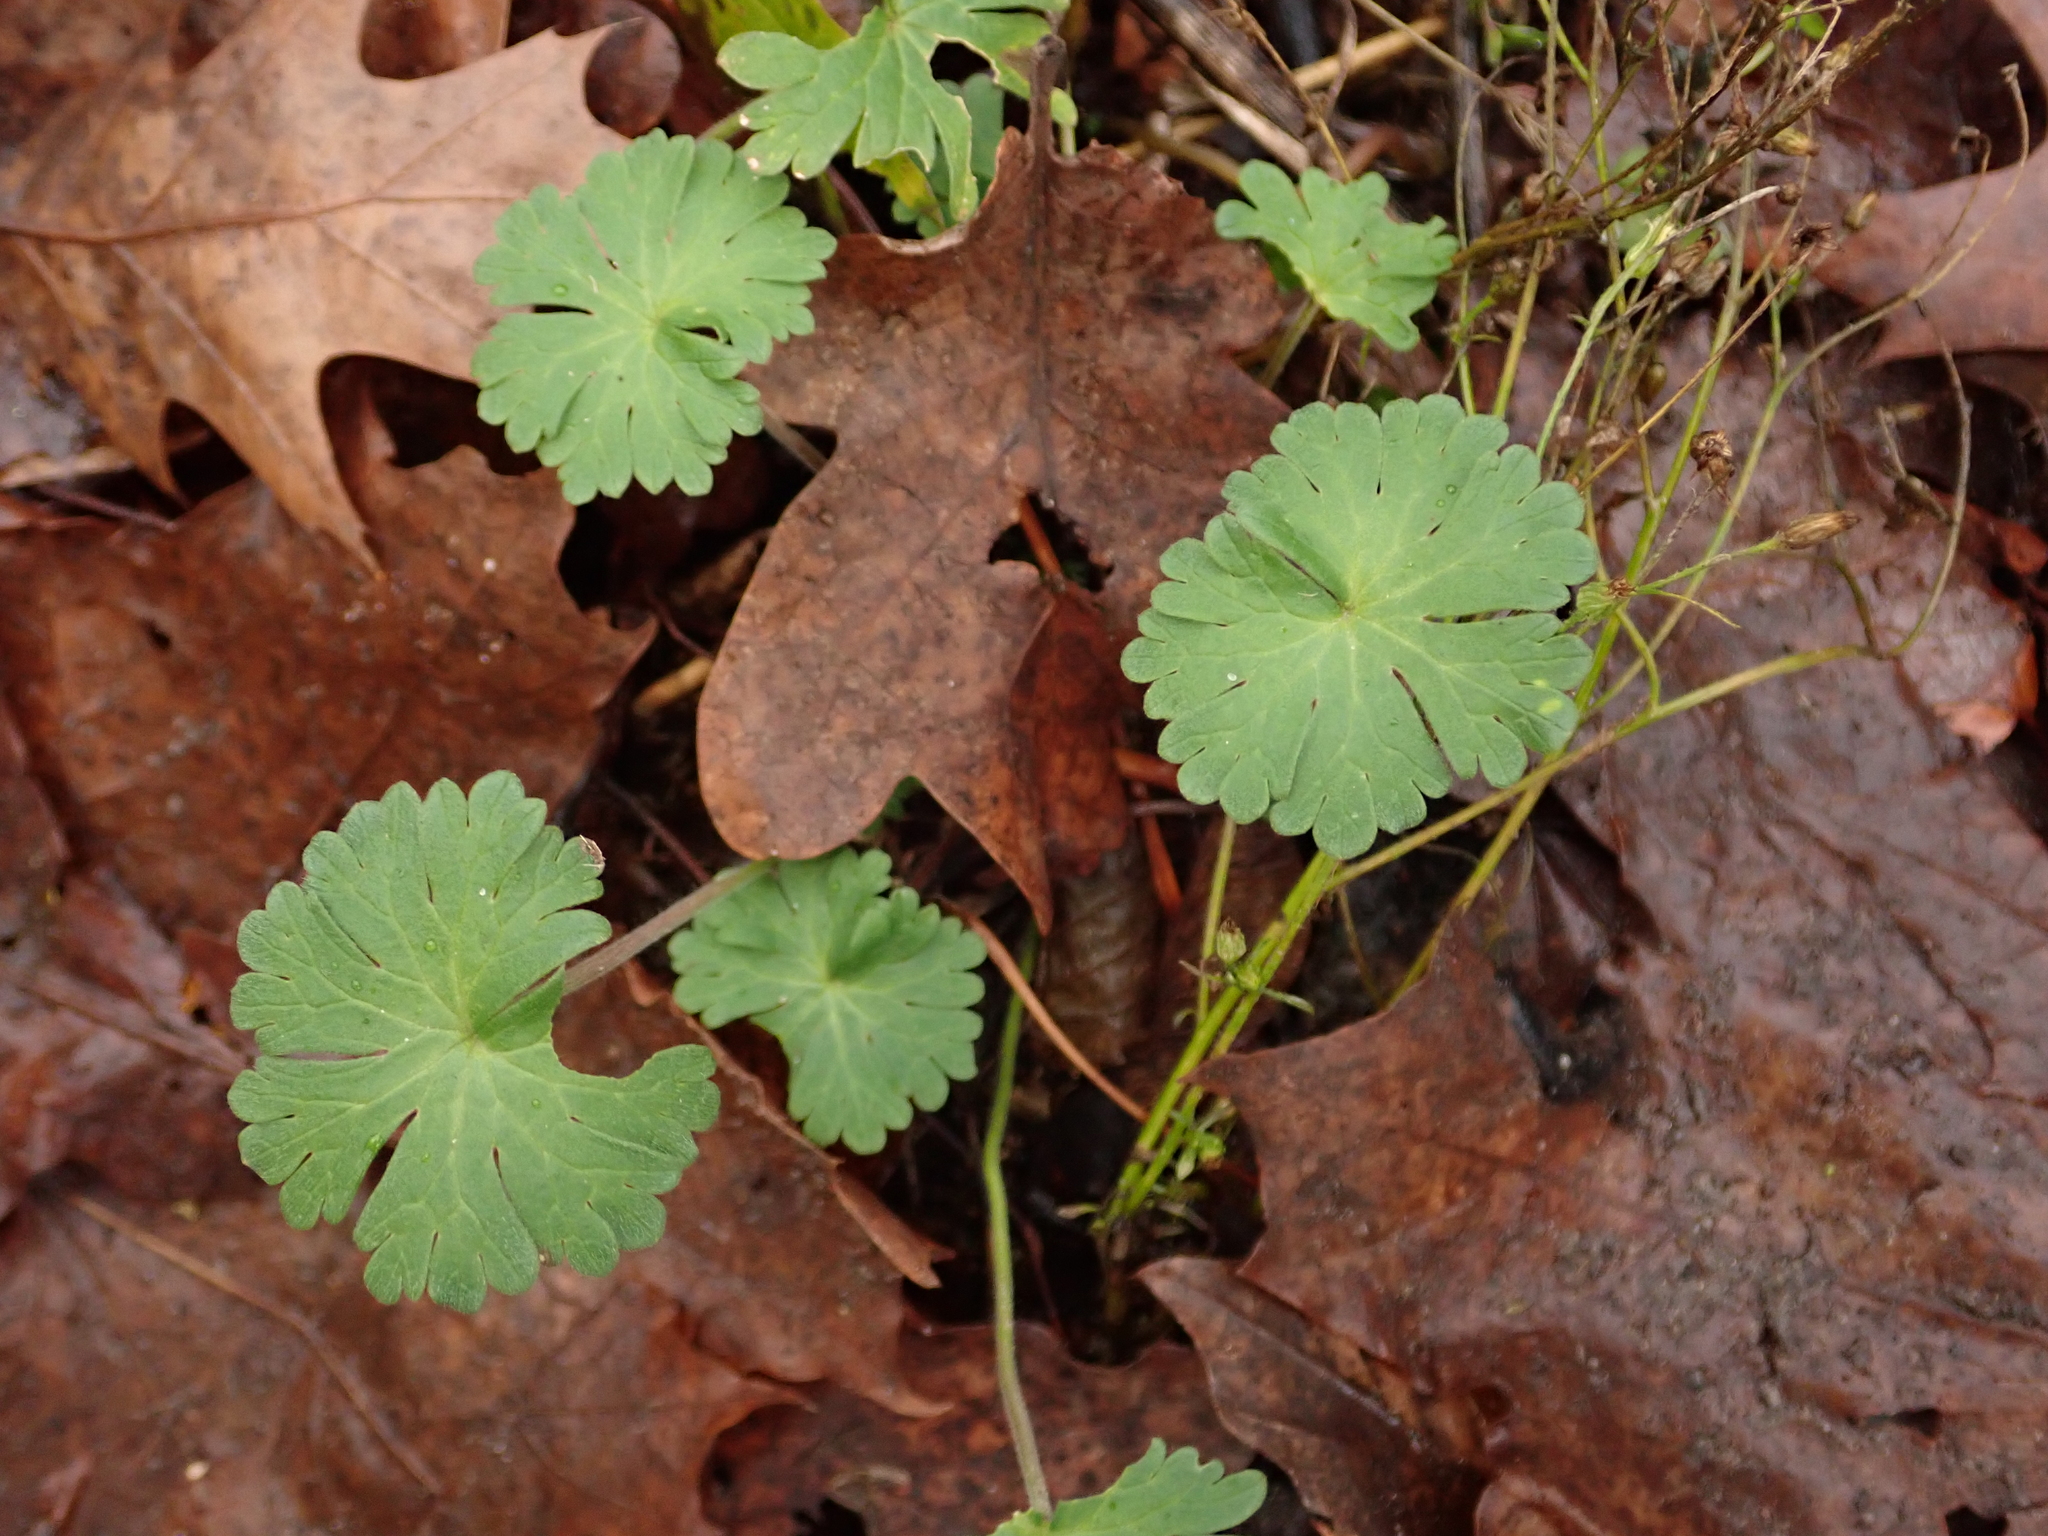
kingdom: Plantae
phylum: Tracheophyta
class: Magnoliopsida
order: Geraniales
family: Geraniaceae
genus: Geranium
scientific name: Geranium molle
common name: Dove's-foot crane's-bill
